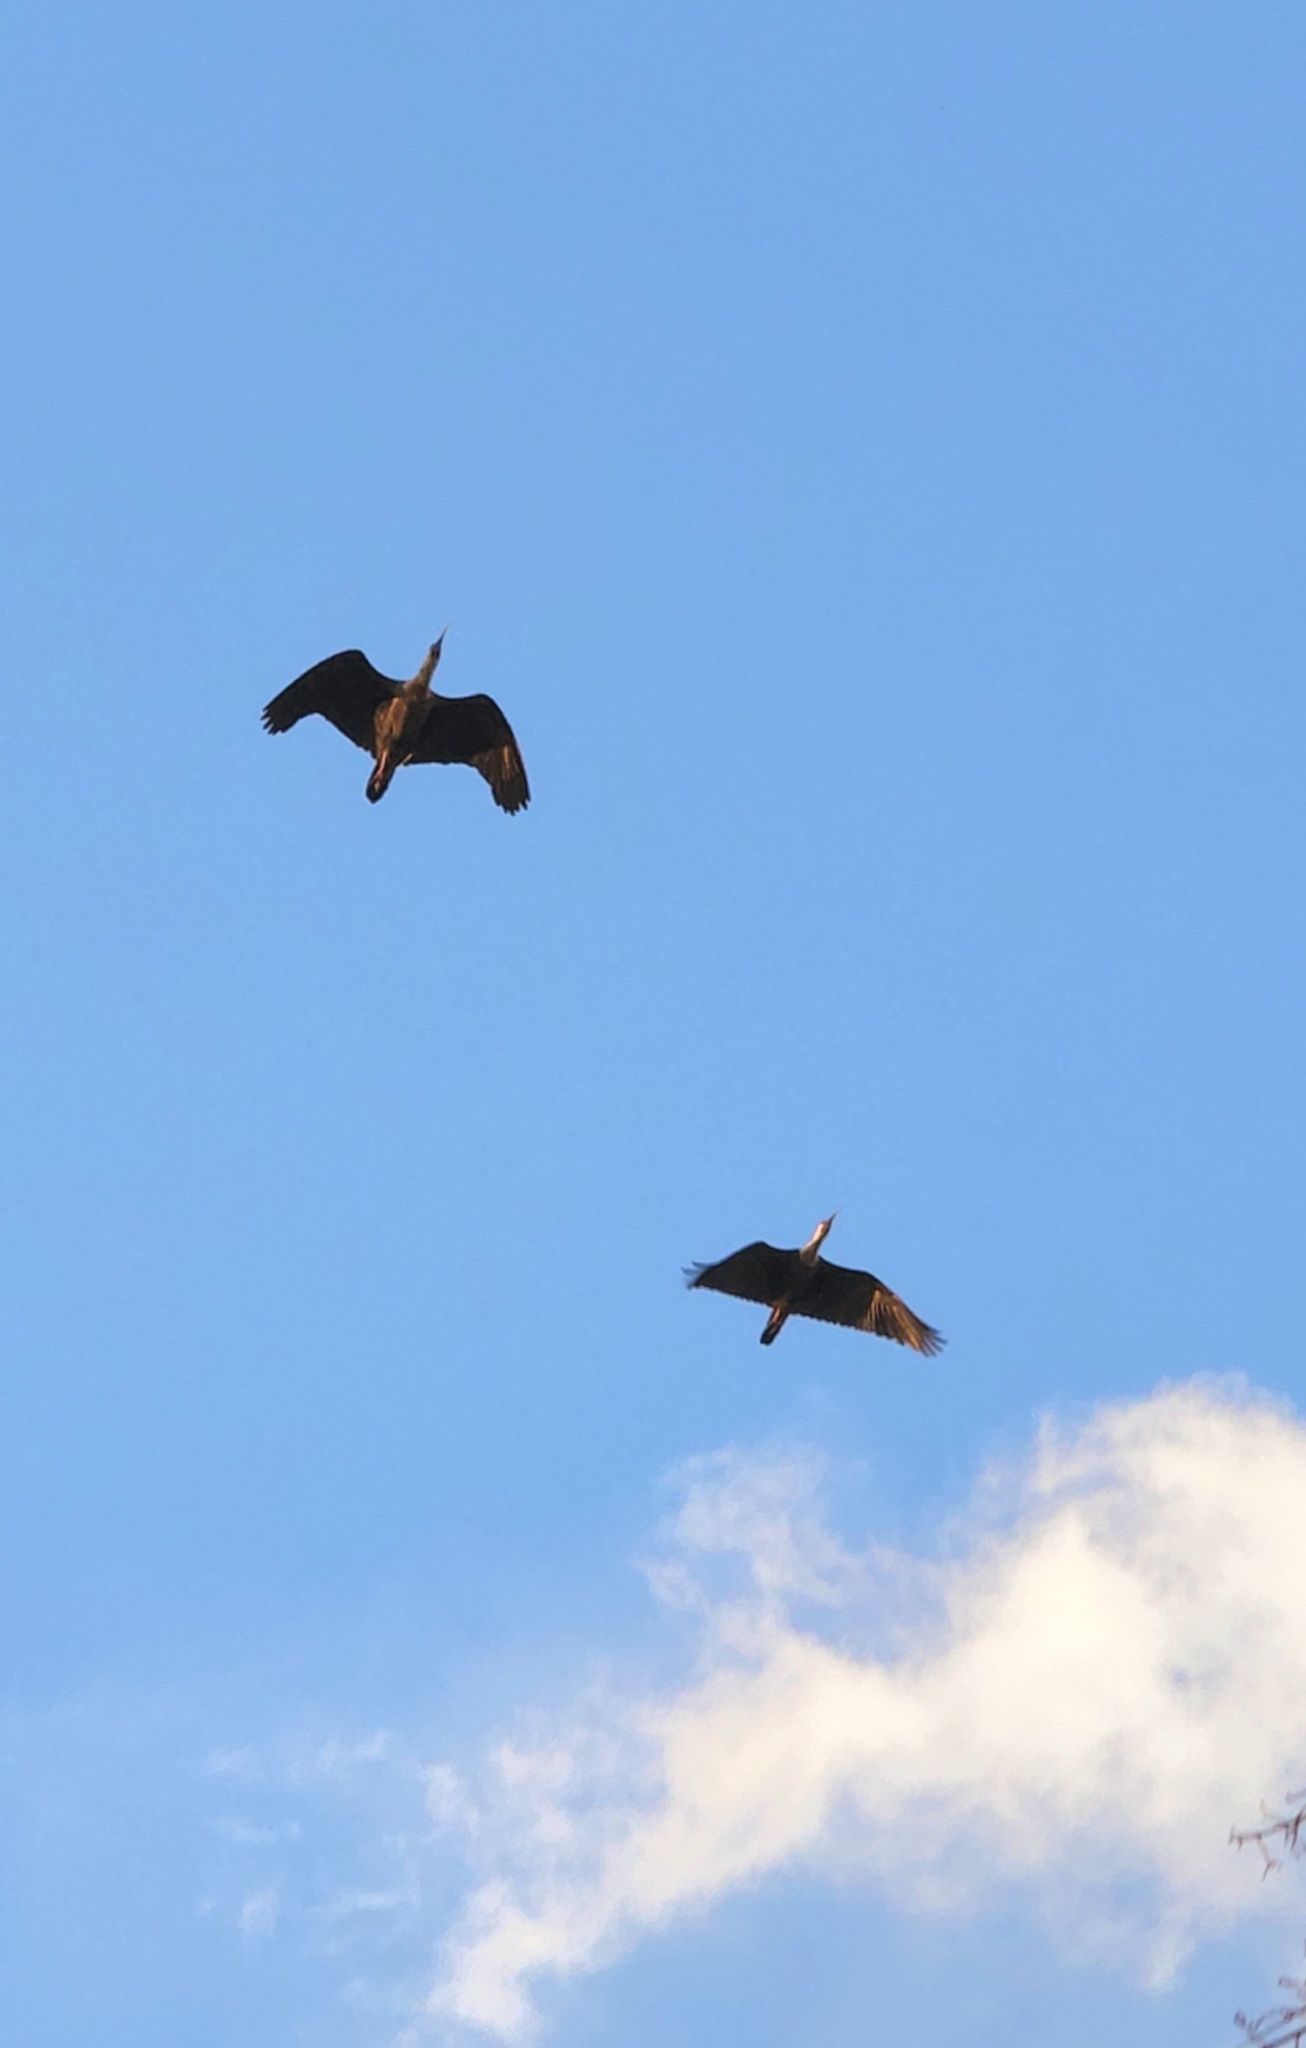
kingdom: Animalia
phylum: Chordata
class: Aves
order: Pelecaniformes
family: Threskiornithidae
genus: Theristicus
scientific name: Theristicus caudatus
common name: Buff-necked ibis
